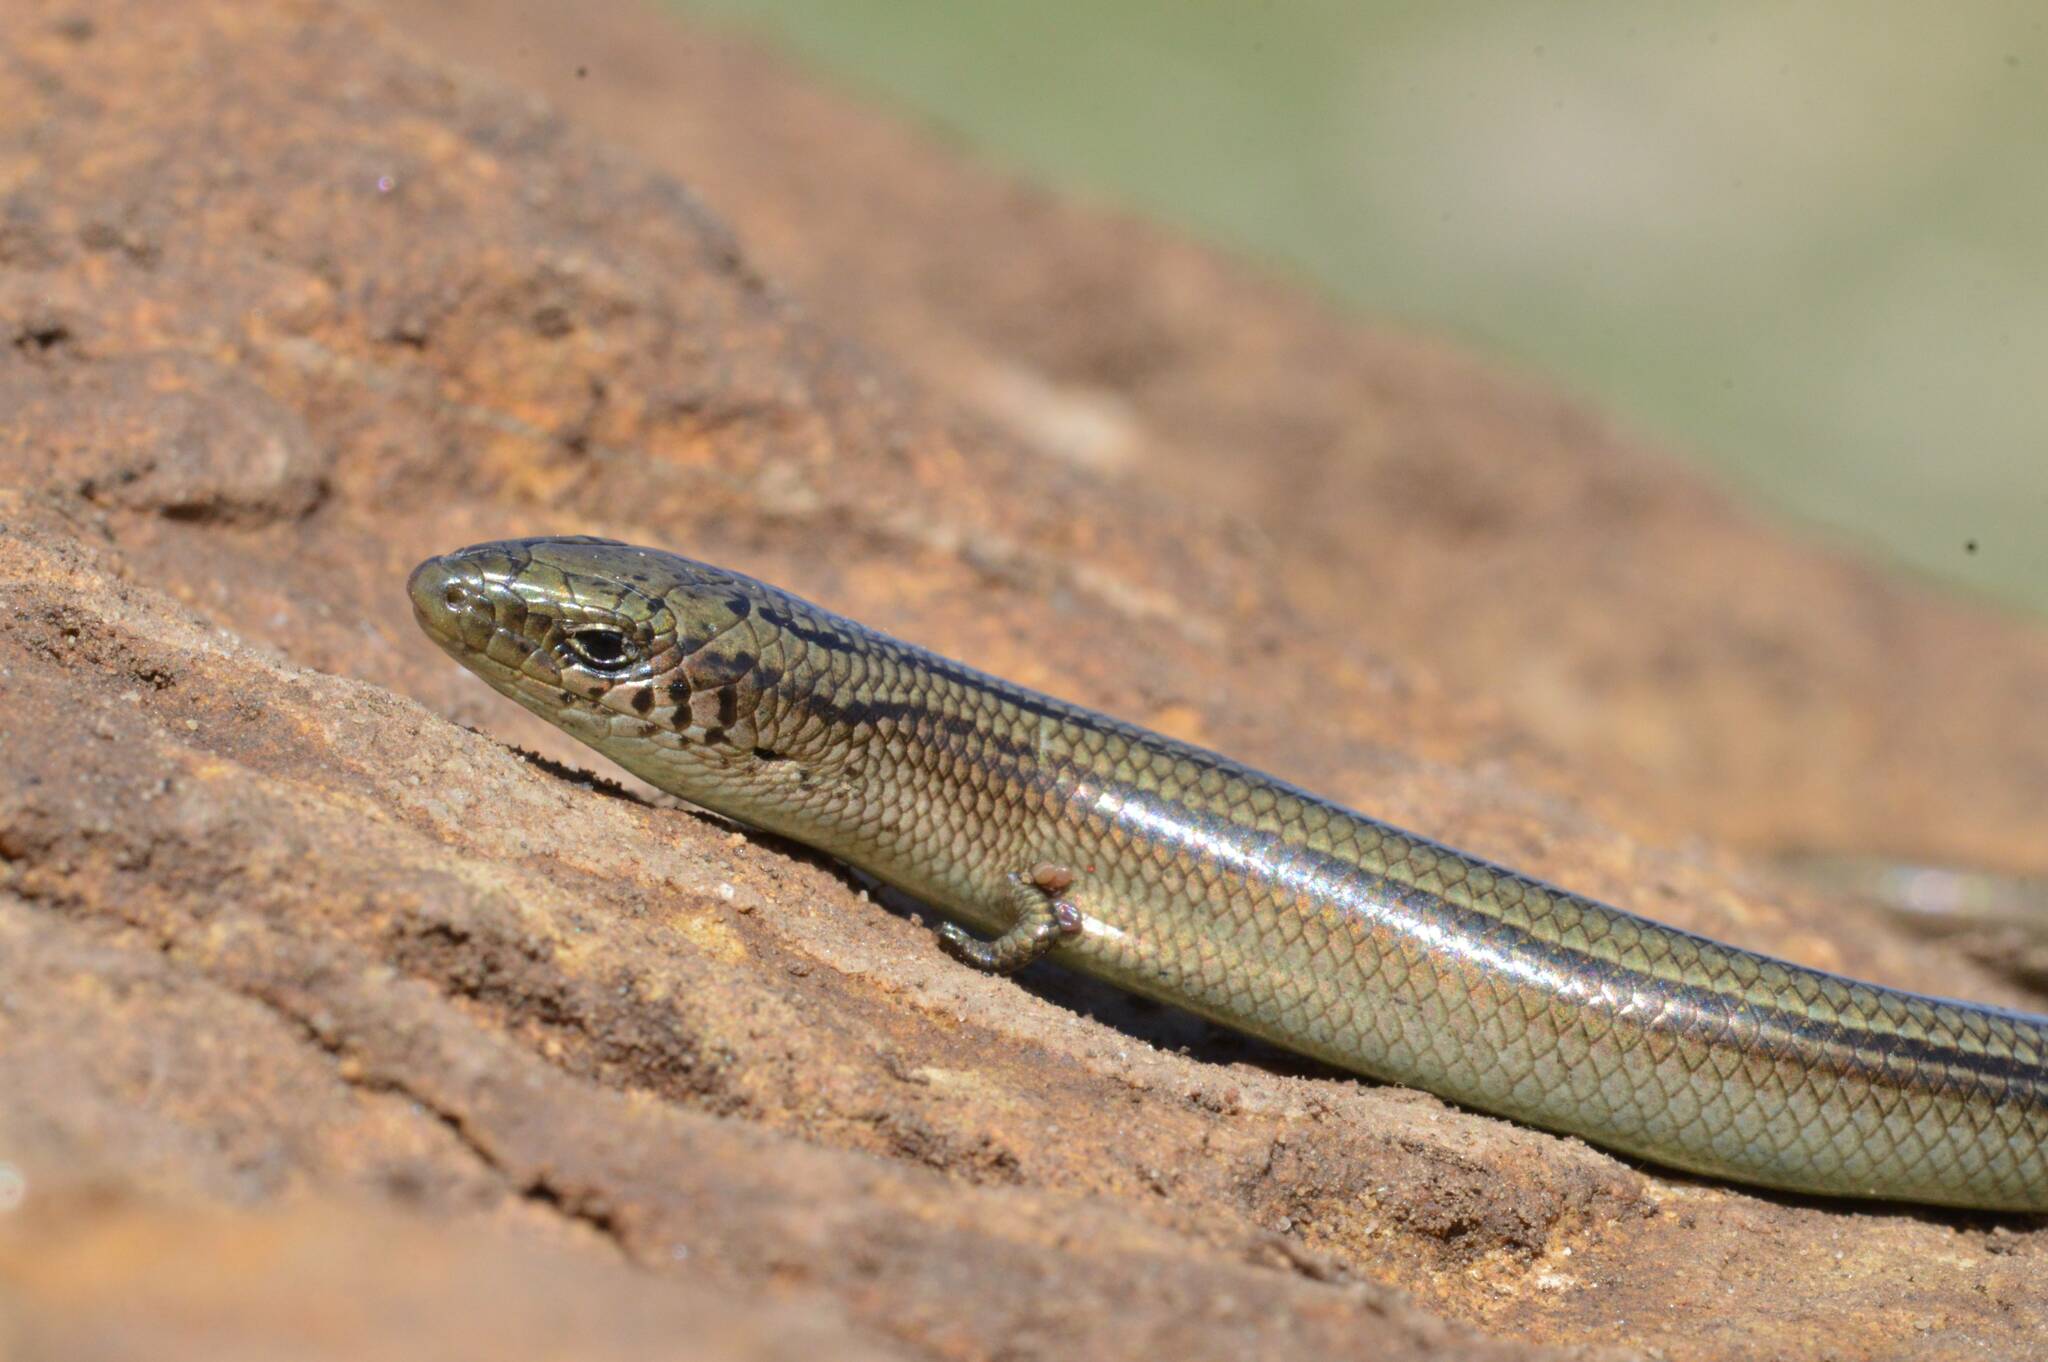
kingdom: Animalia
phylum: Chordata
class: Squamata
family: Scincidae
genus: Chalcides
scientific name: Chalcides mertensi
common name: Algerian three-toed skink
